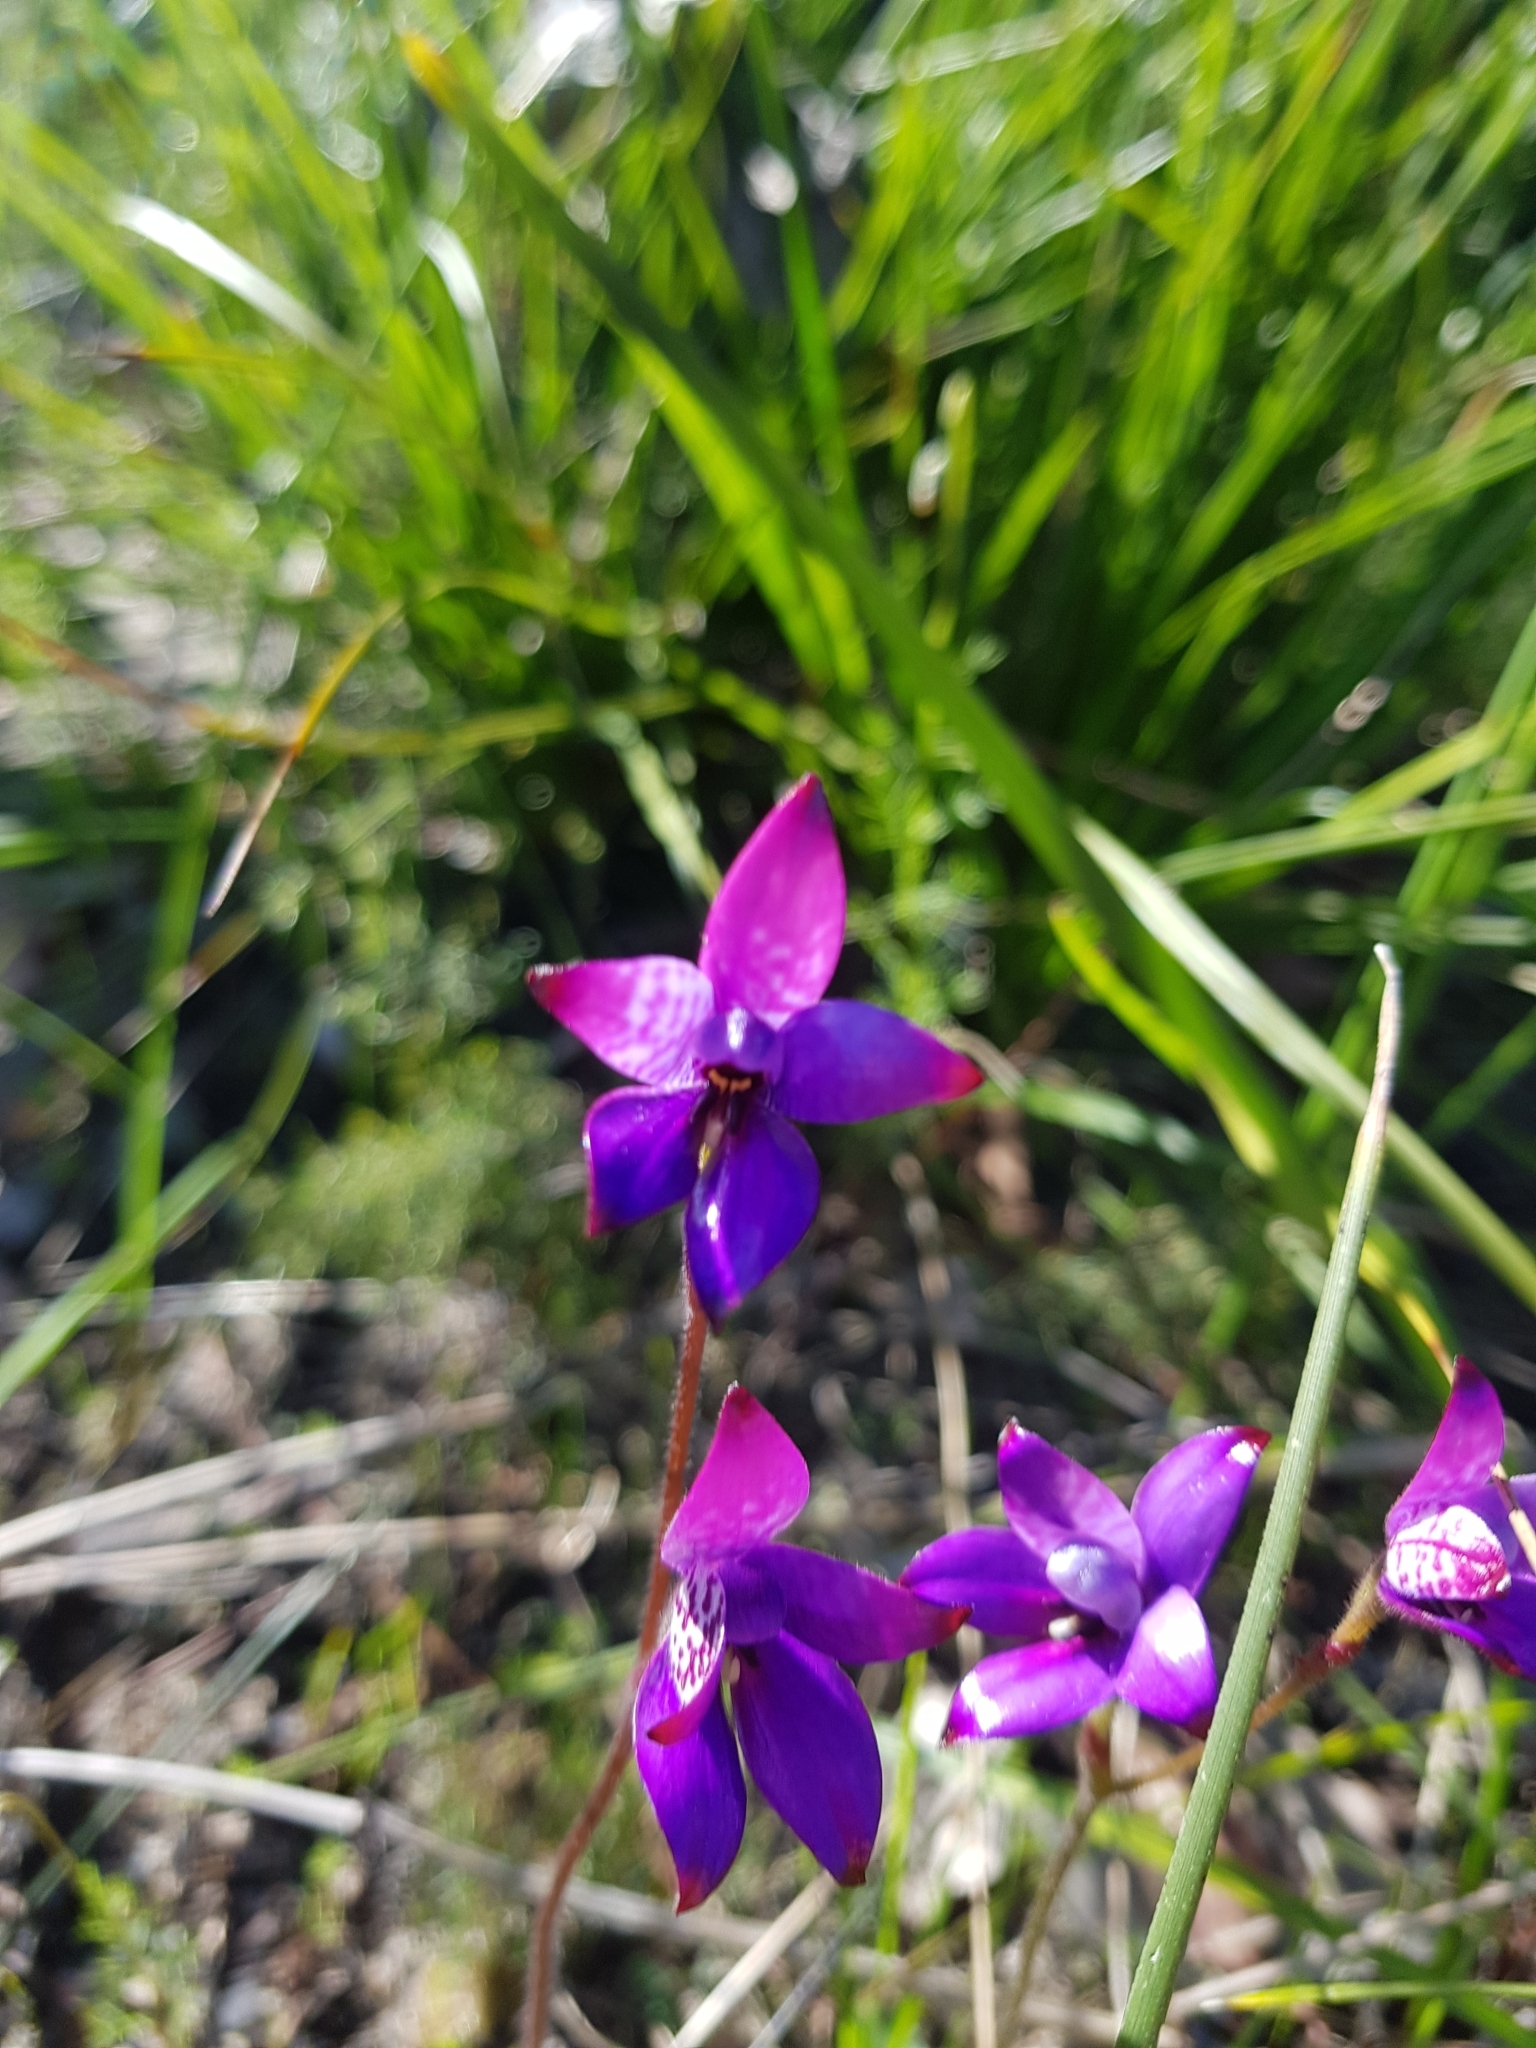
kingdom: Plantae
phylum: Tracheophyta
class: Liliopsida
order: Asparagales
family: Orchidaceae
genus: Caladenia
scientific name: Caladenia brunonis
